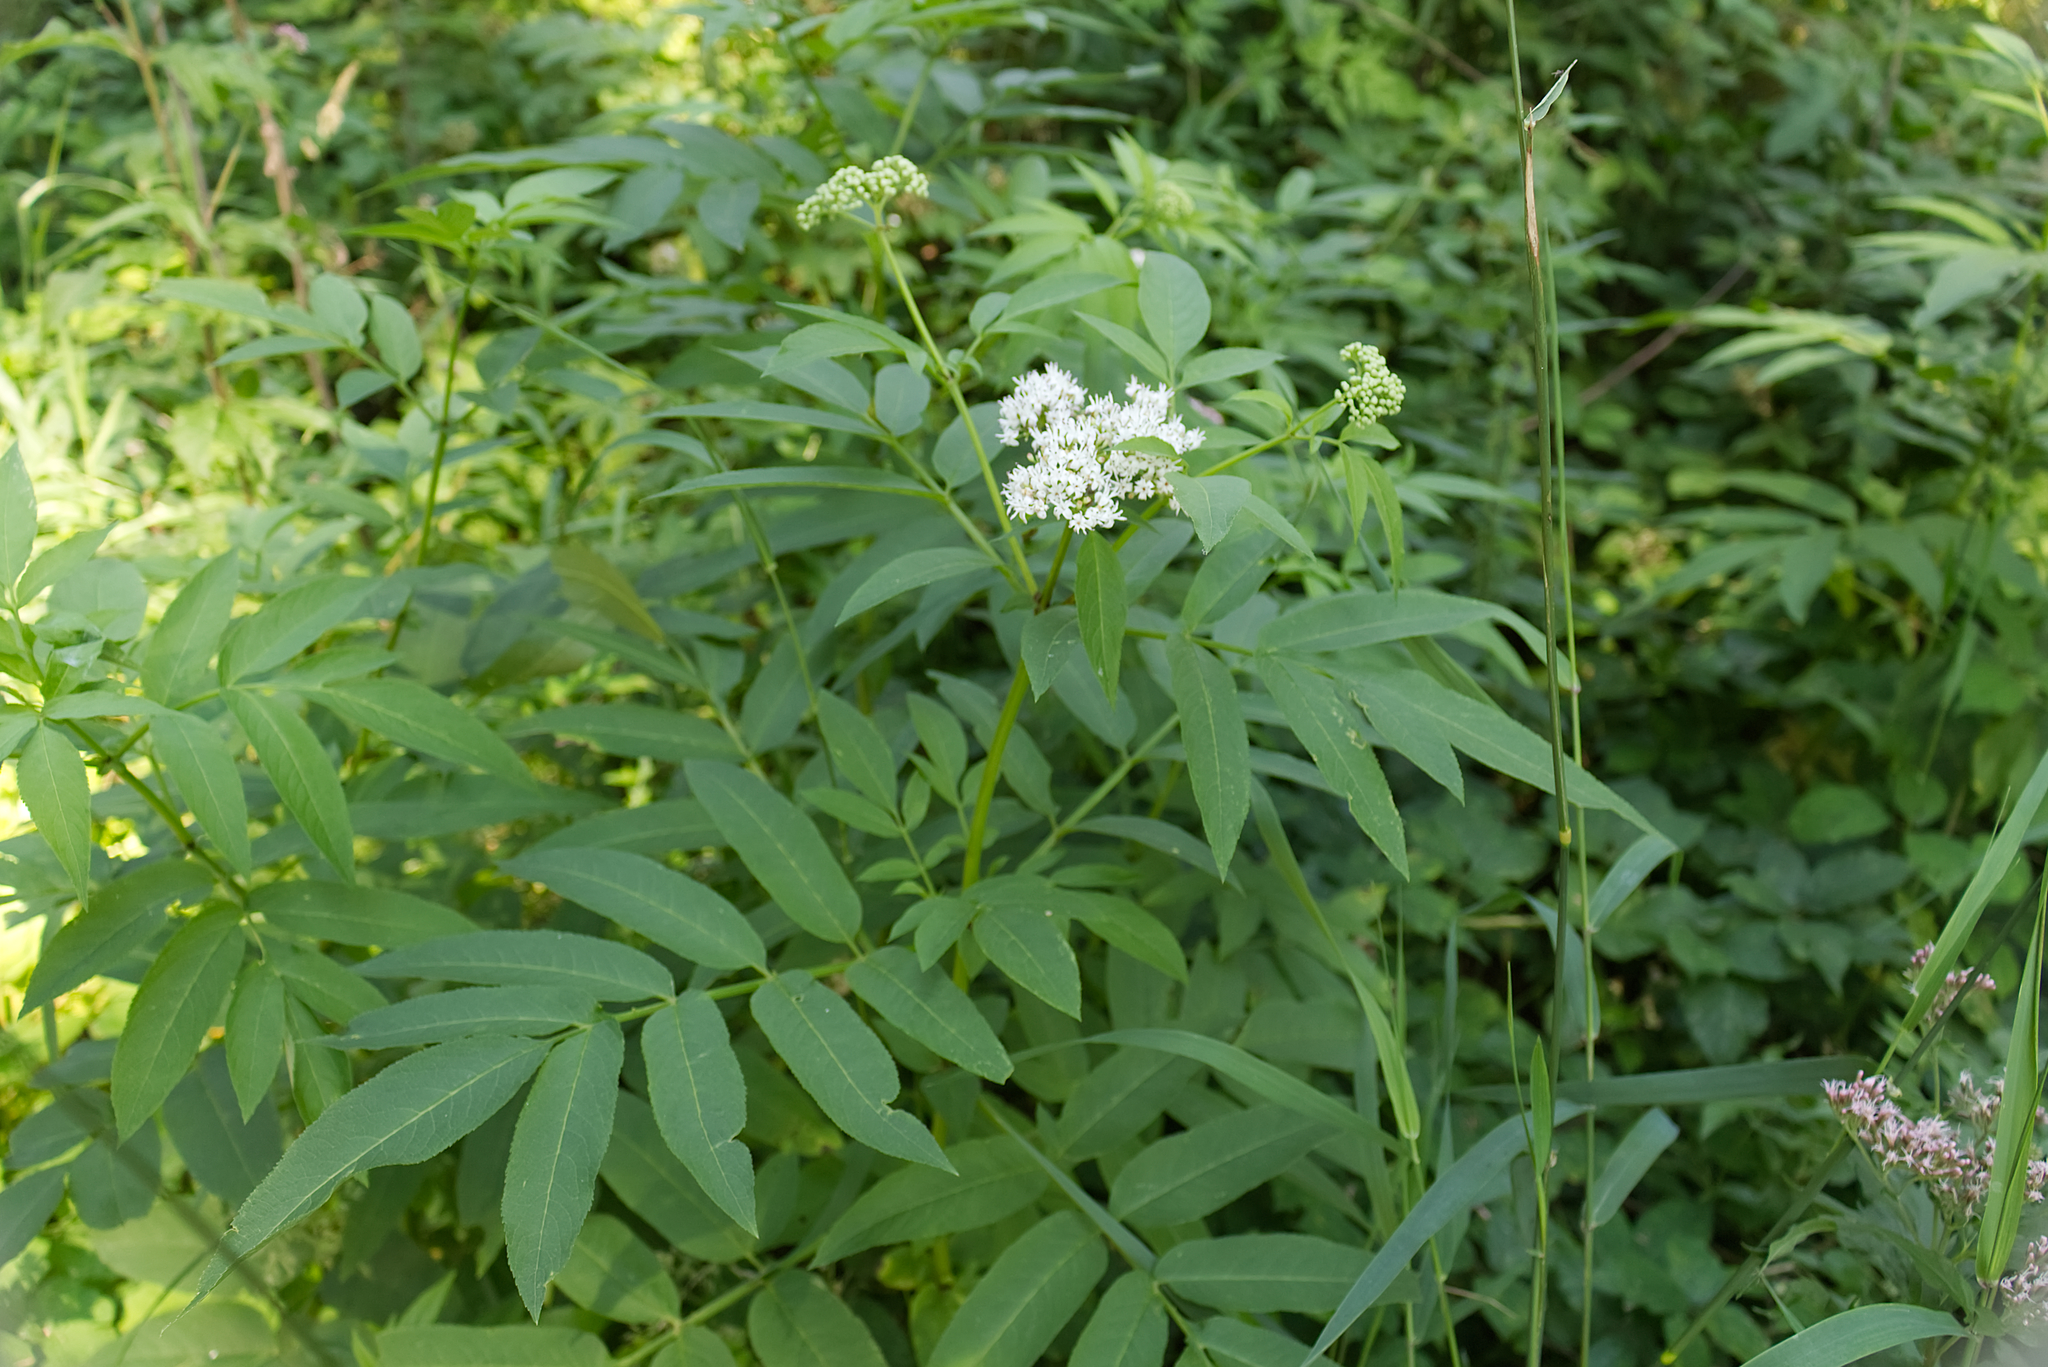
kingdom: Plantae
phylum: Tracheophyta
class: Magnoliopsida
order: Dipsacales
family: Viburnaceae
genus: Sambucus
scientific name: Sambucus ebulus
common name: Dwarf elder
